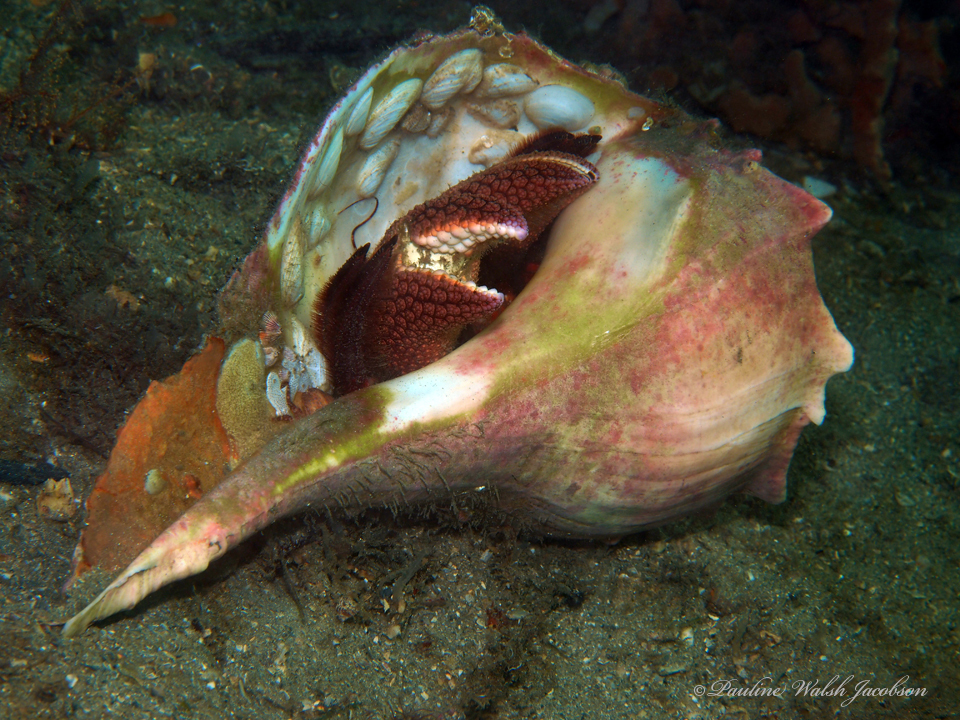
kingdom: Animalia
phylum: Arthropoda
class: Malacostraca
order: Decapoda
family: Diogenidae
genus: Petrochirus
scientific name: Petrochirus diogenes
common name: Giant hermit crab
